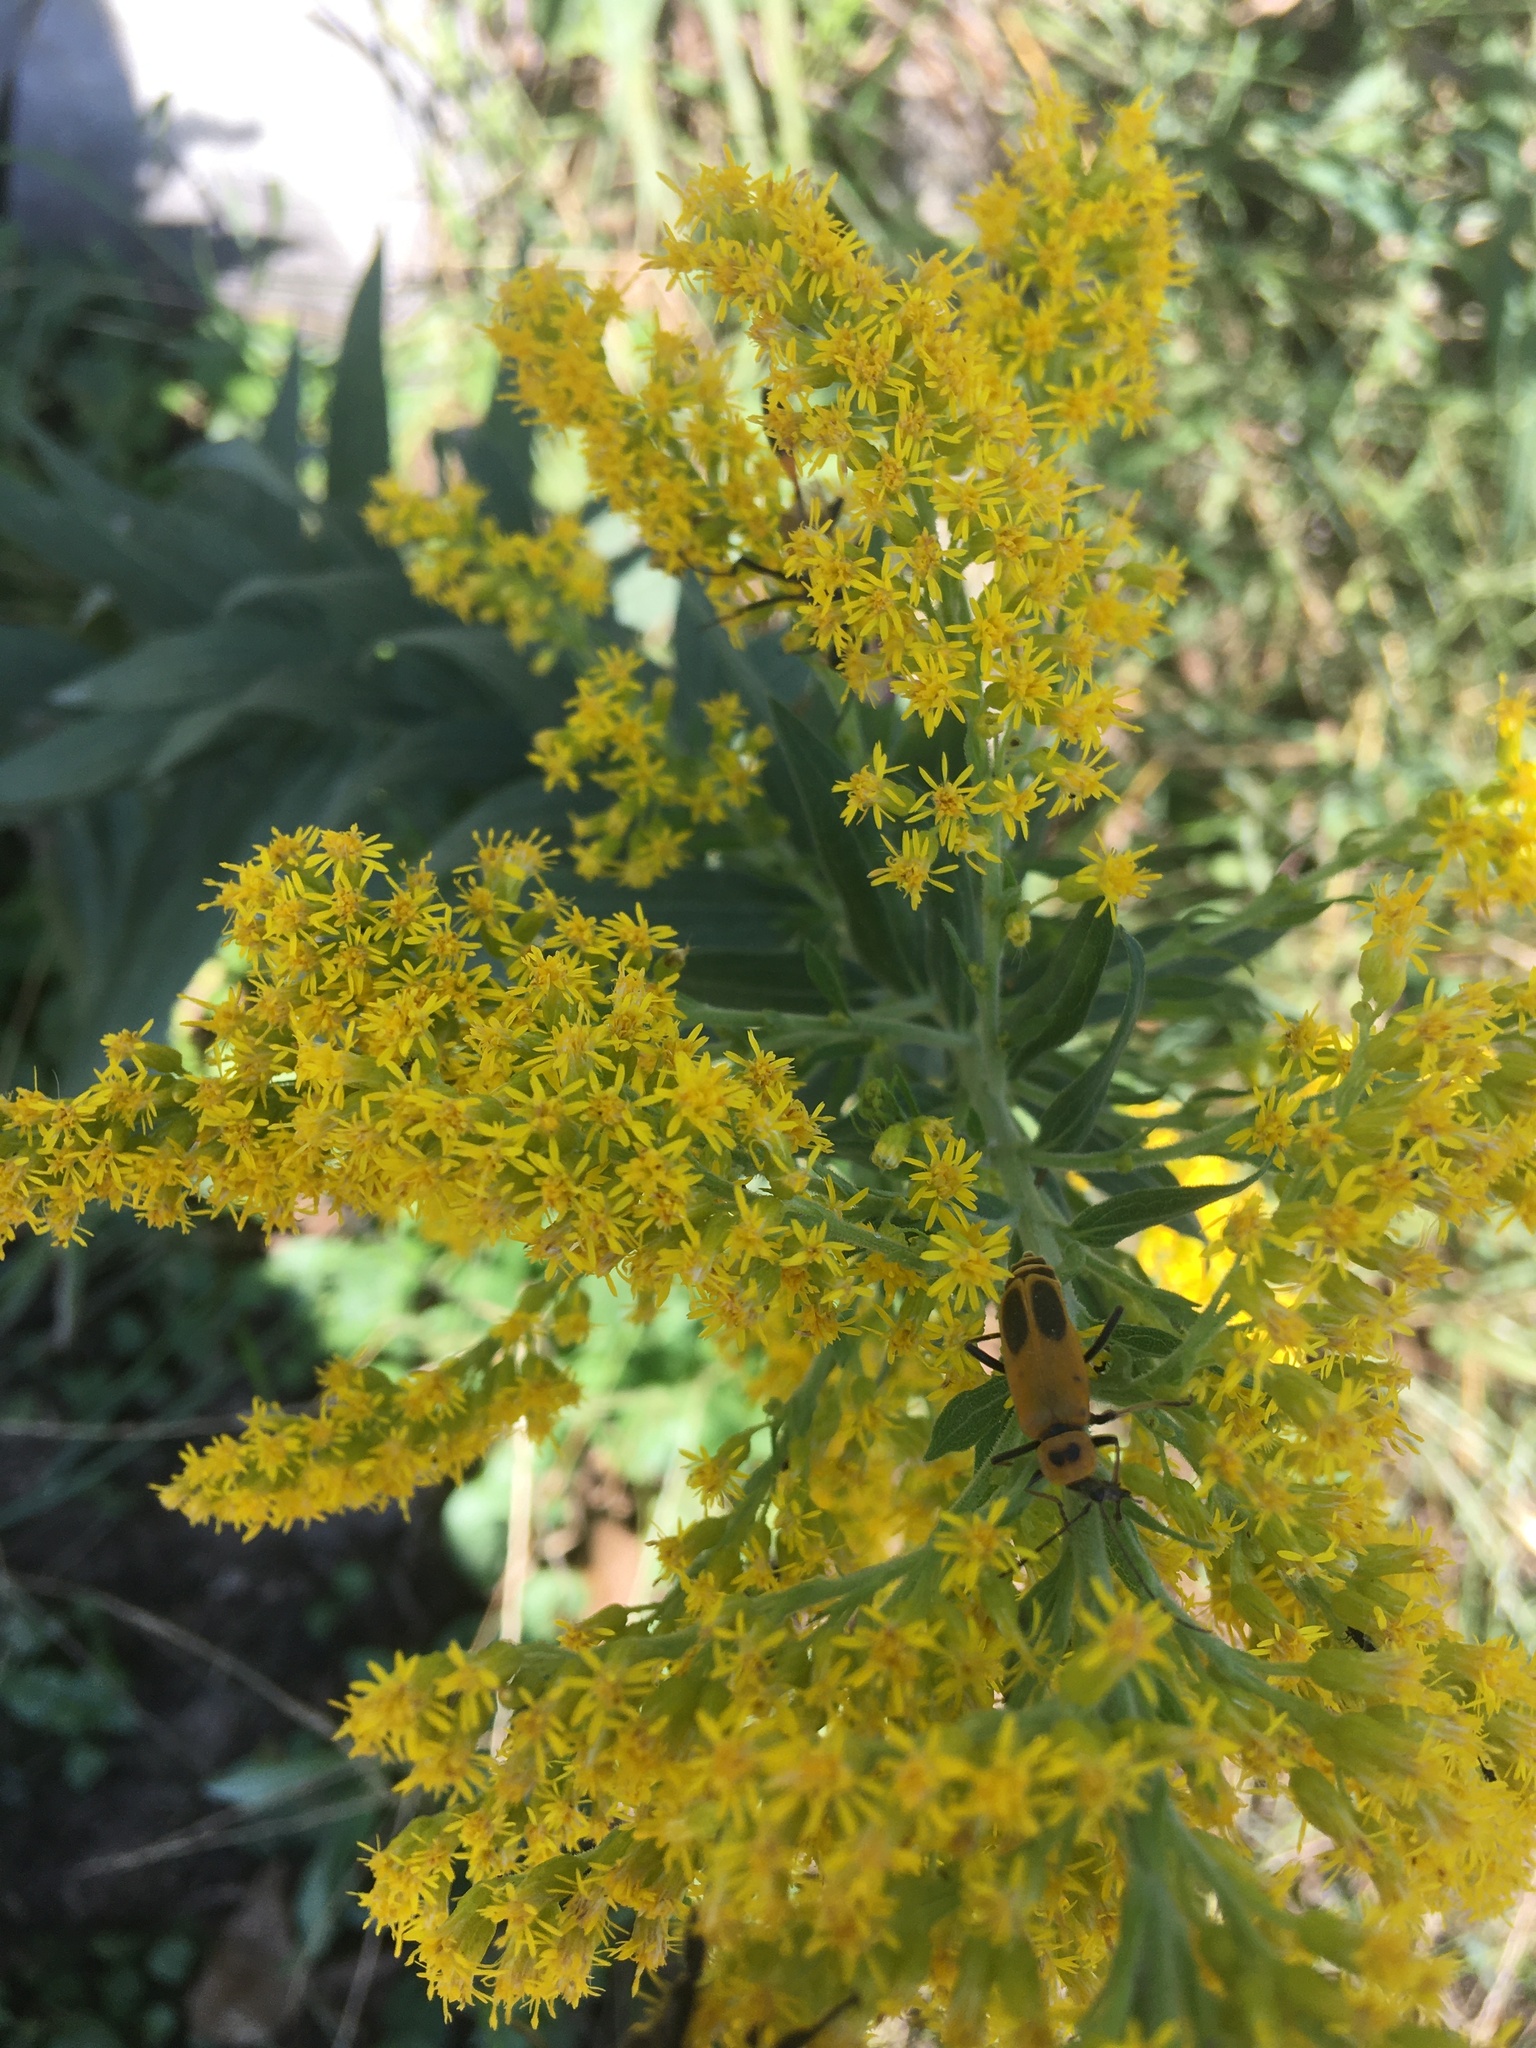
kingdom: Animalia
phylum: Arthropoda
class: Insecta
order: Coleoptera
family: Cantharidae
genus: Chauliognathus
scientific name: Chauliognathus pensylvanicus
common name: Goldenrod soldier beetle
